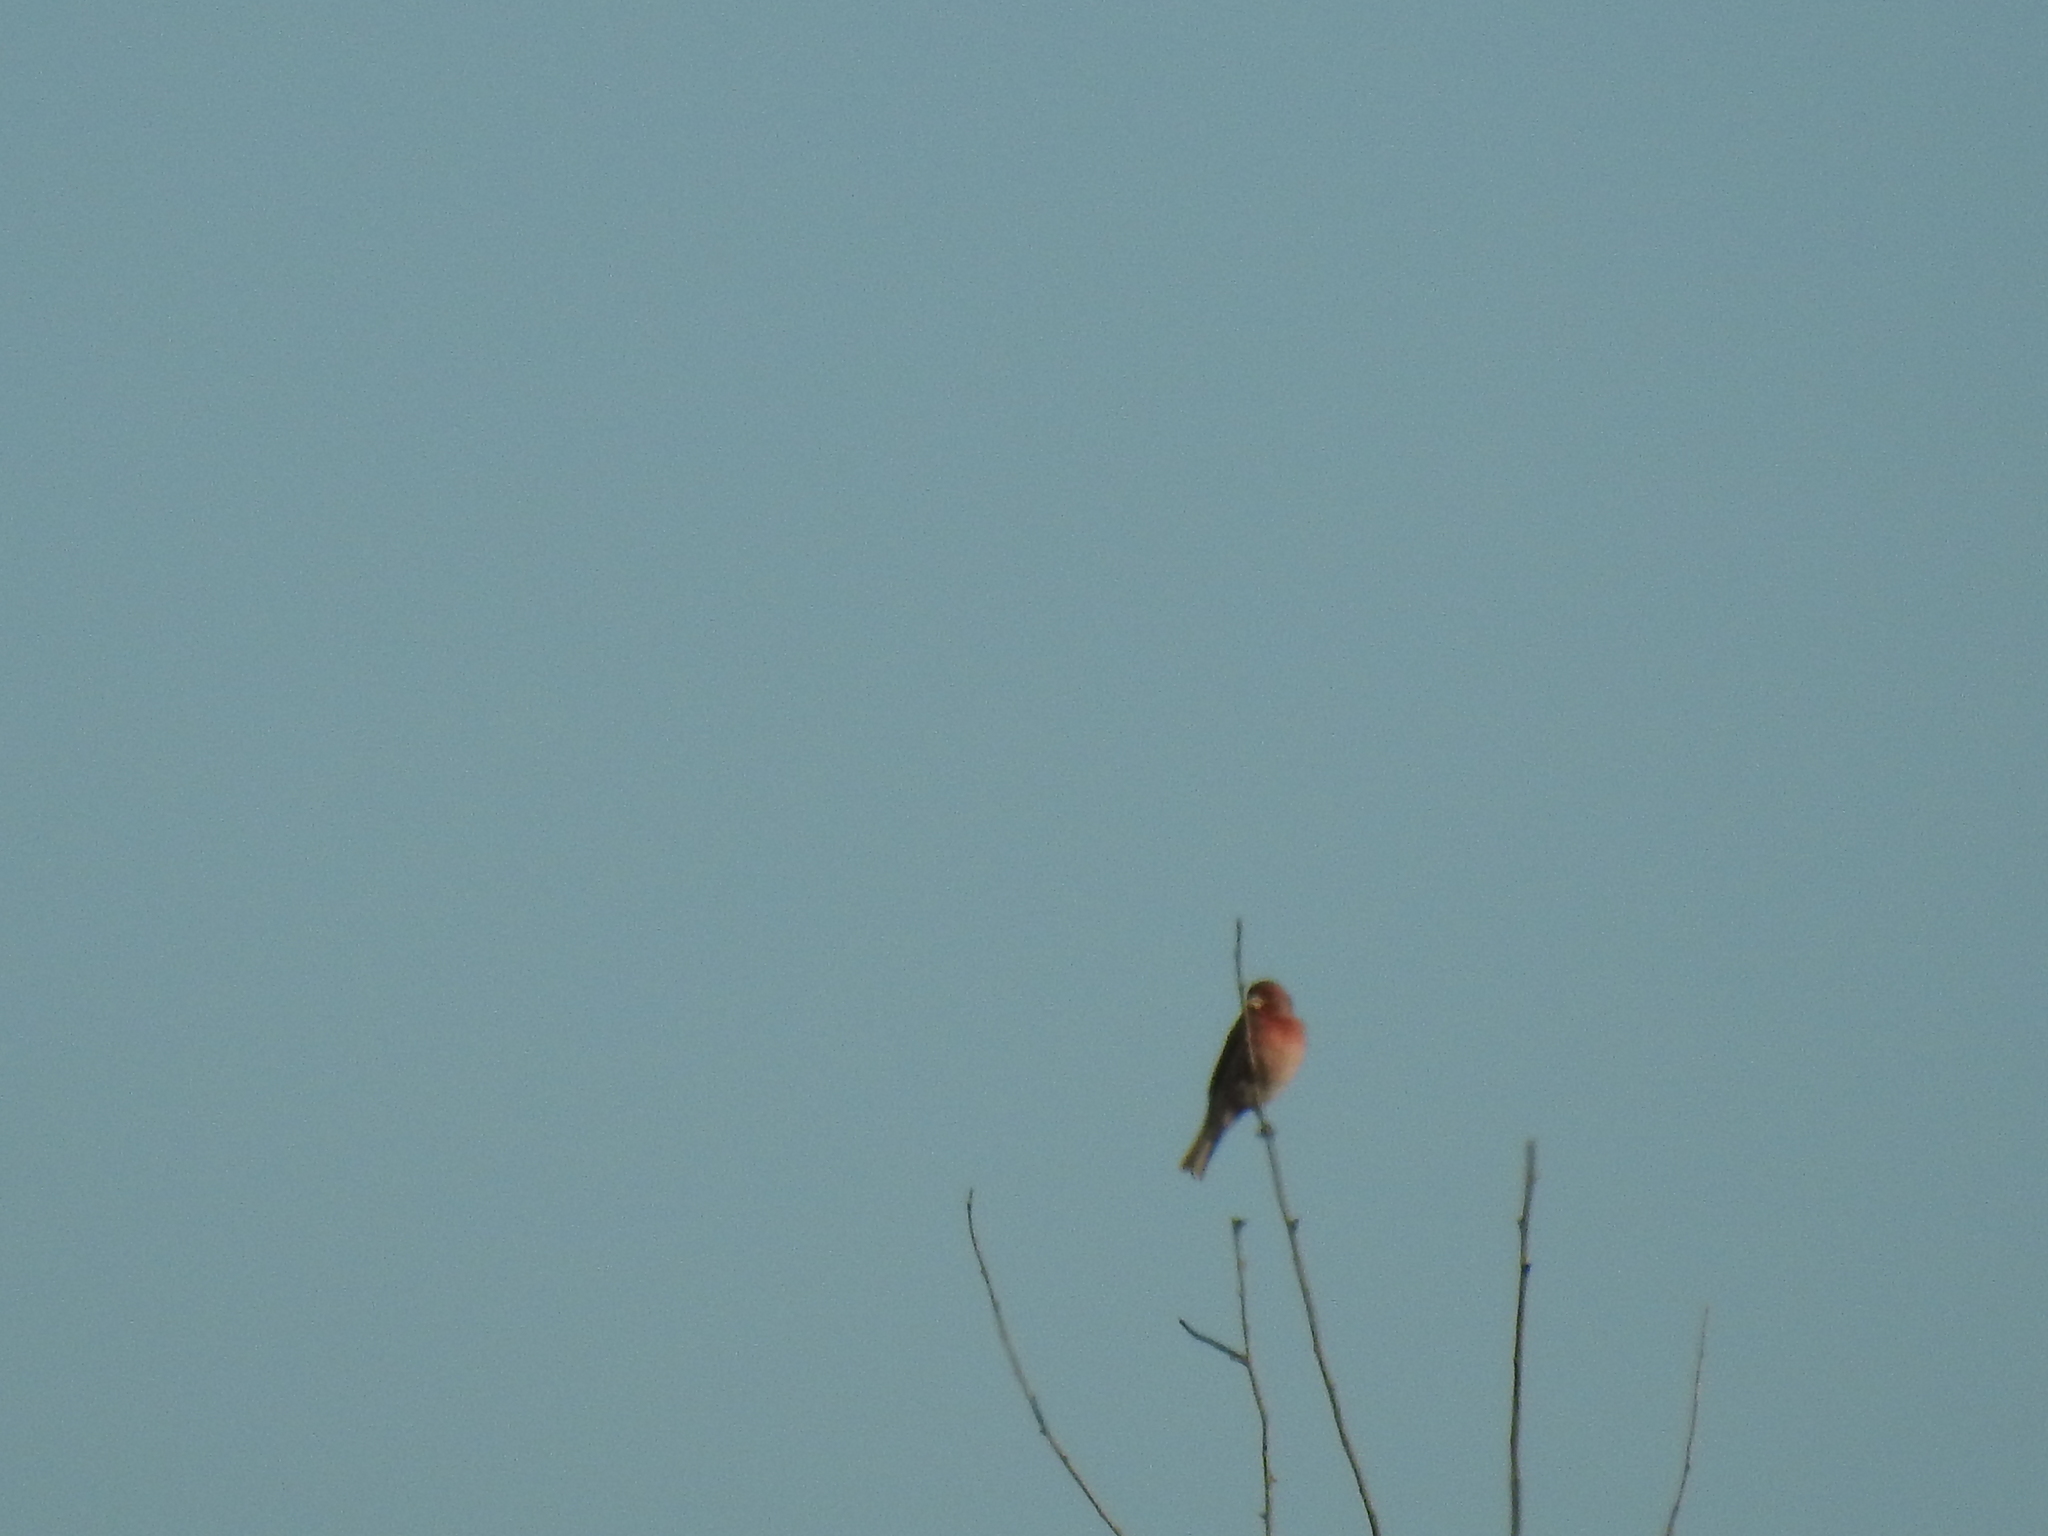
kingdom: Animalia
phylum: Chordata
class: Aves
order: Passeriformes
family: Fringillidae
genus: Haemorhous
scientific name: Haemorhous mexicanus
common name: House finch
